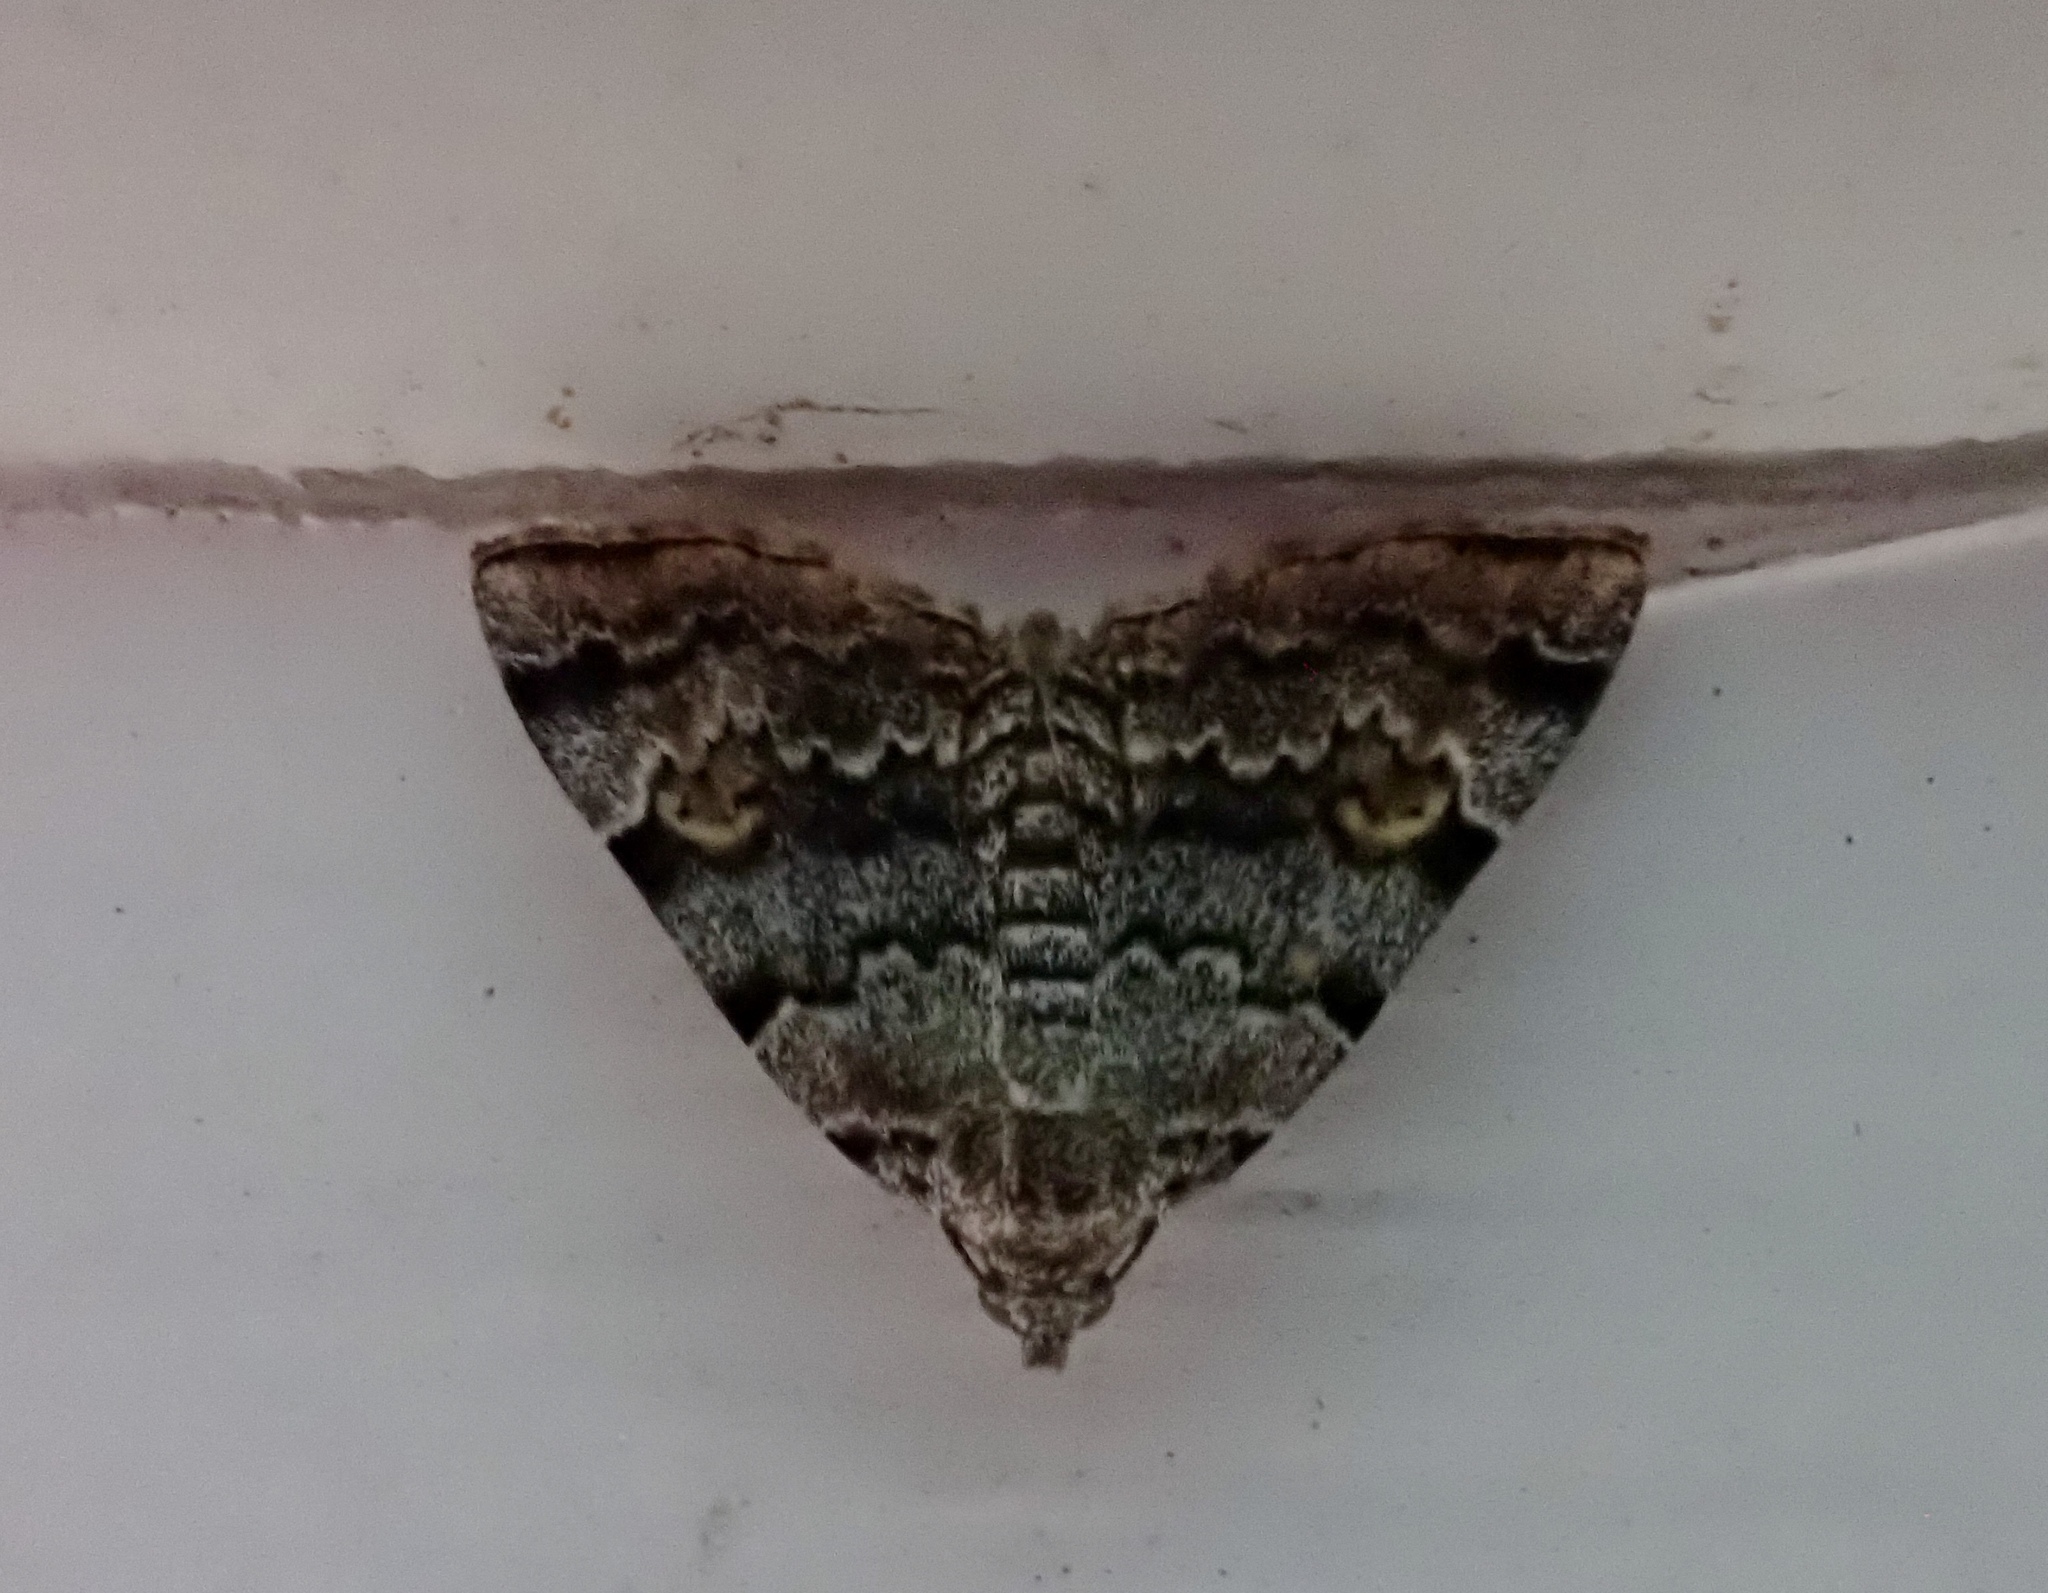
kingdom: Animalia
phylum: Arthropoda
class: Insecta
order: Lepidoptera
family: Erebidae
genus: Idia
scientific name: Idia americalis
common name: American idia moth
